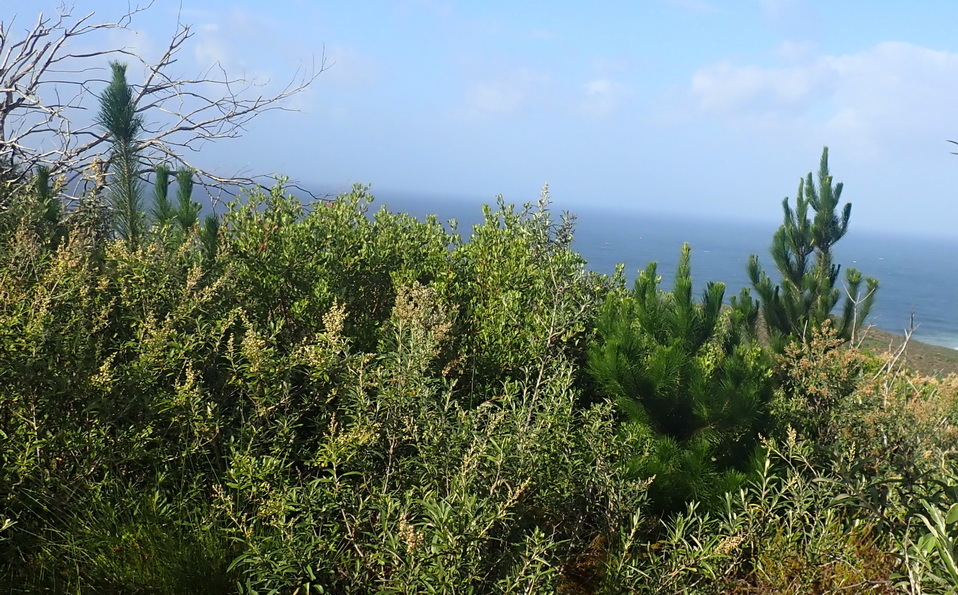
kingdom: Plantae
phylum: Tracheophyta
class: Pinopsida
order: Pinales
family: Pinaceae
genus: Pinus
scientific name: Pinus pinaster
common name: Maritime pine
